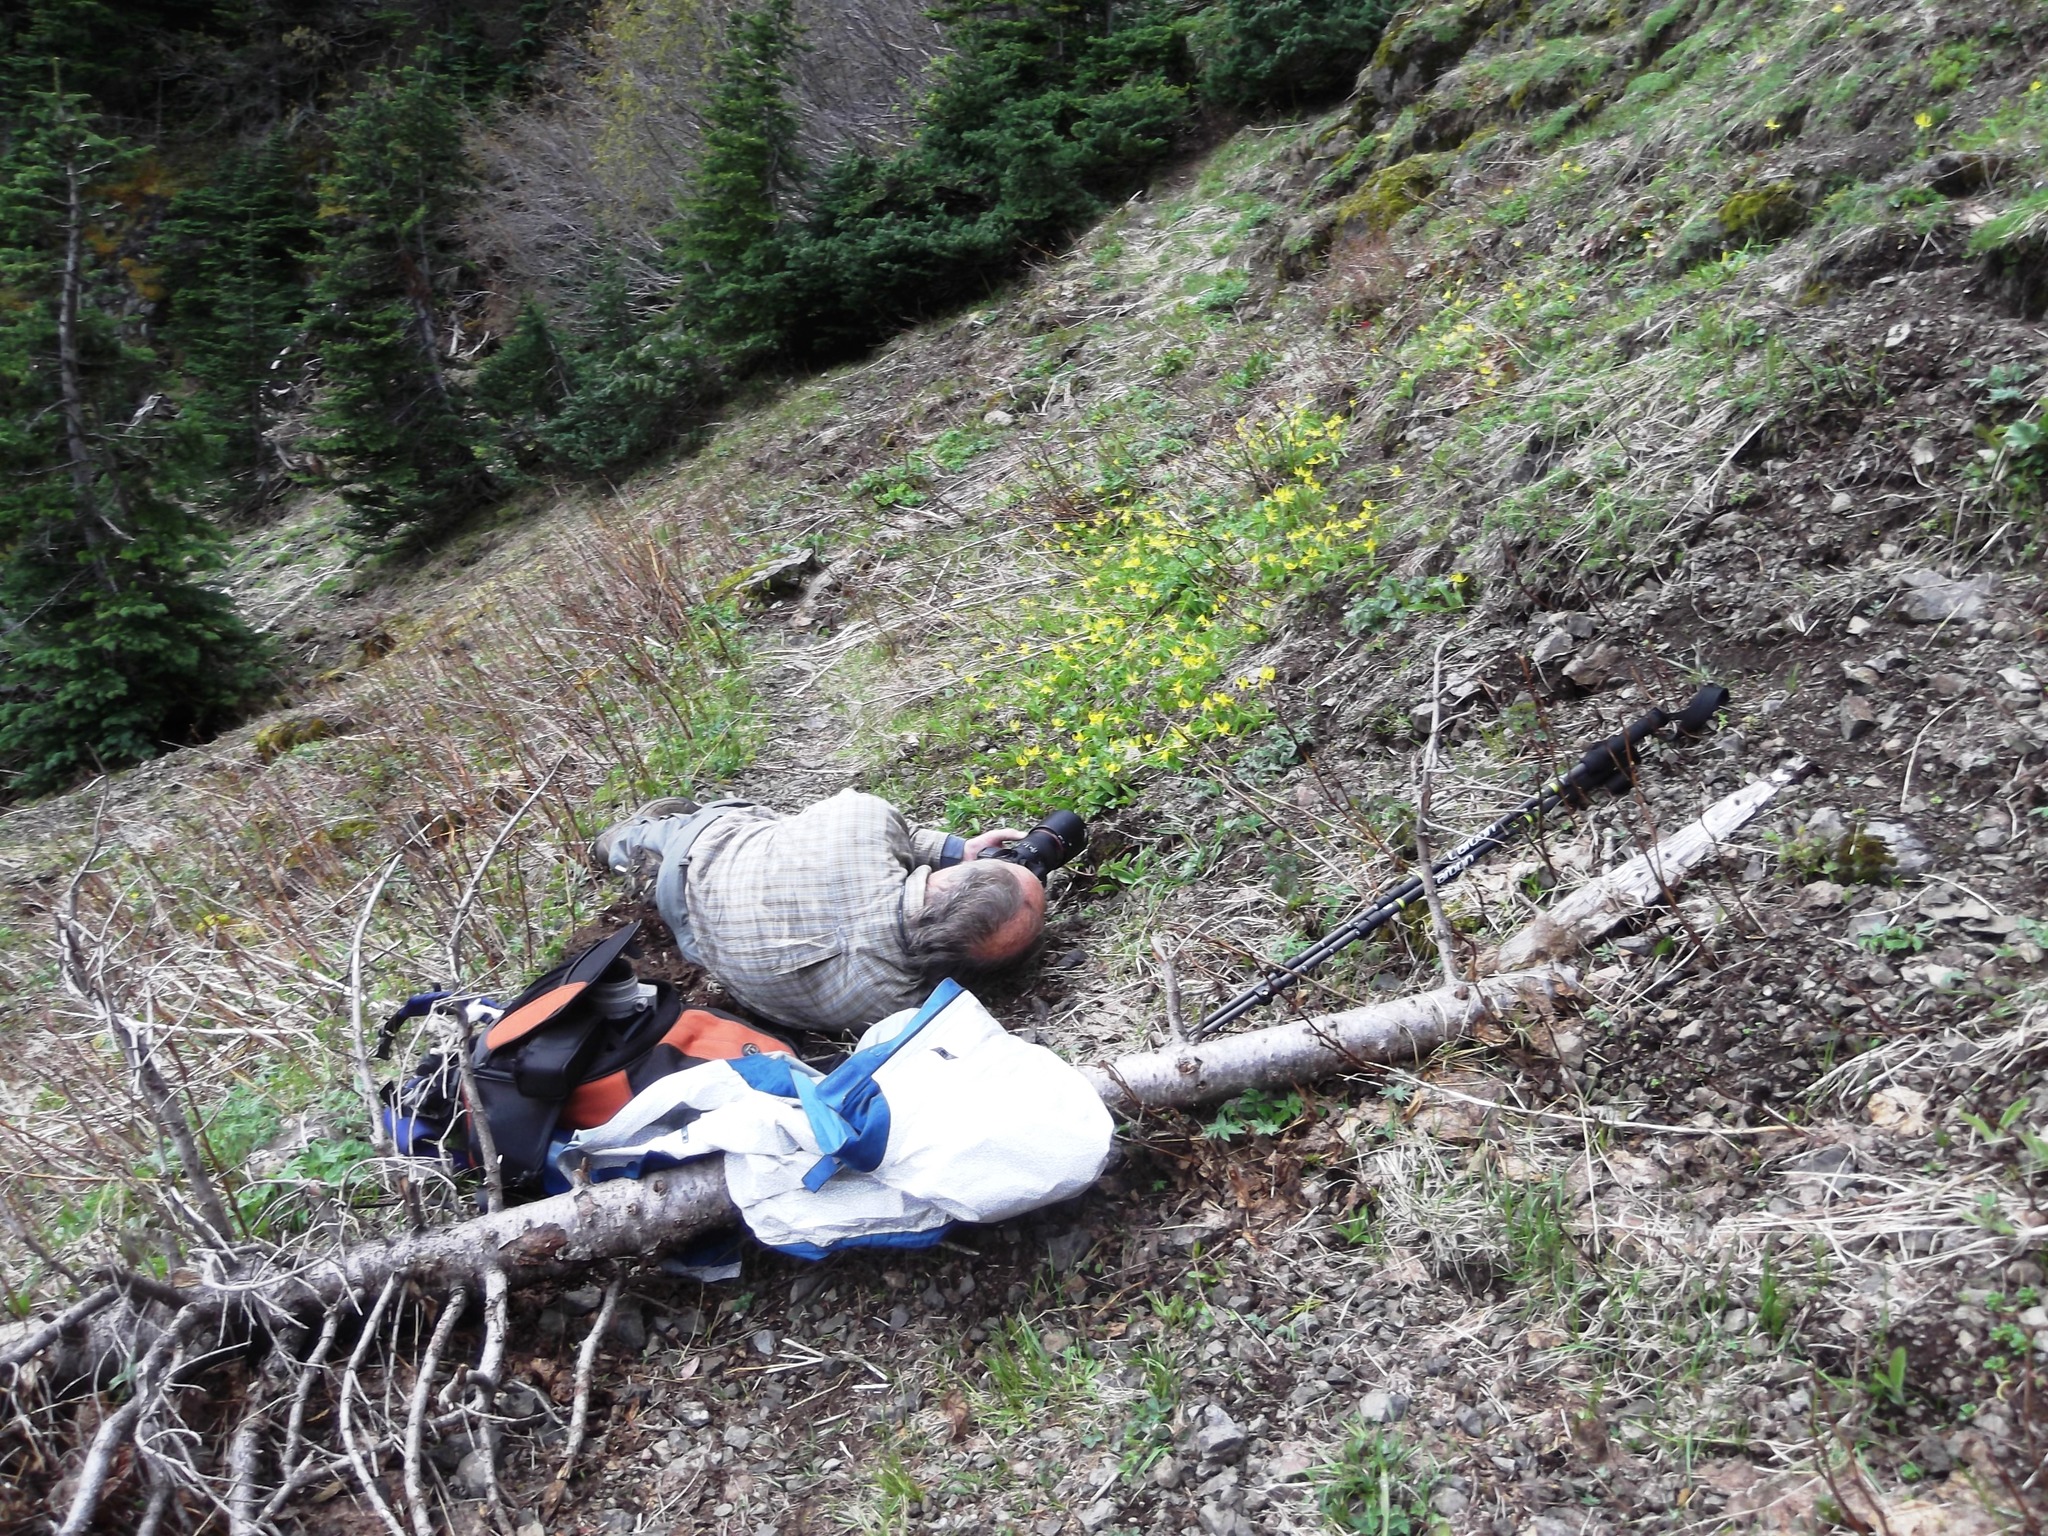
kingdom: Plantae
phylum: Tracheophyta
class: Liliopsida
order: Liliales
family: Liliaceae
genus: Erythronium
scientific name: Erythronium grandiflorum
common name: Avalanche-lily
